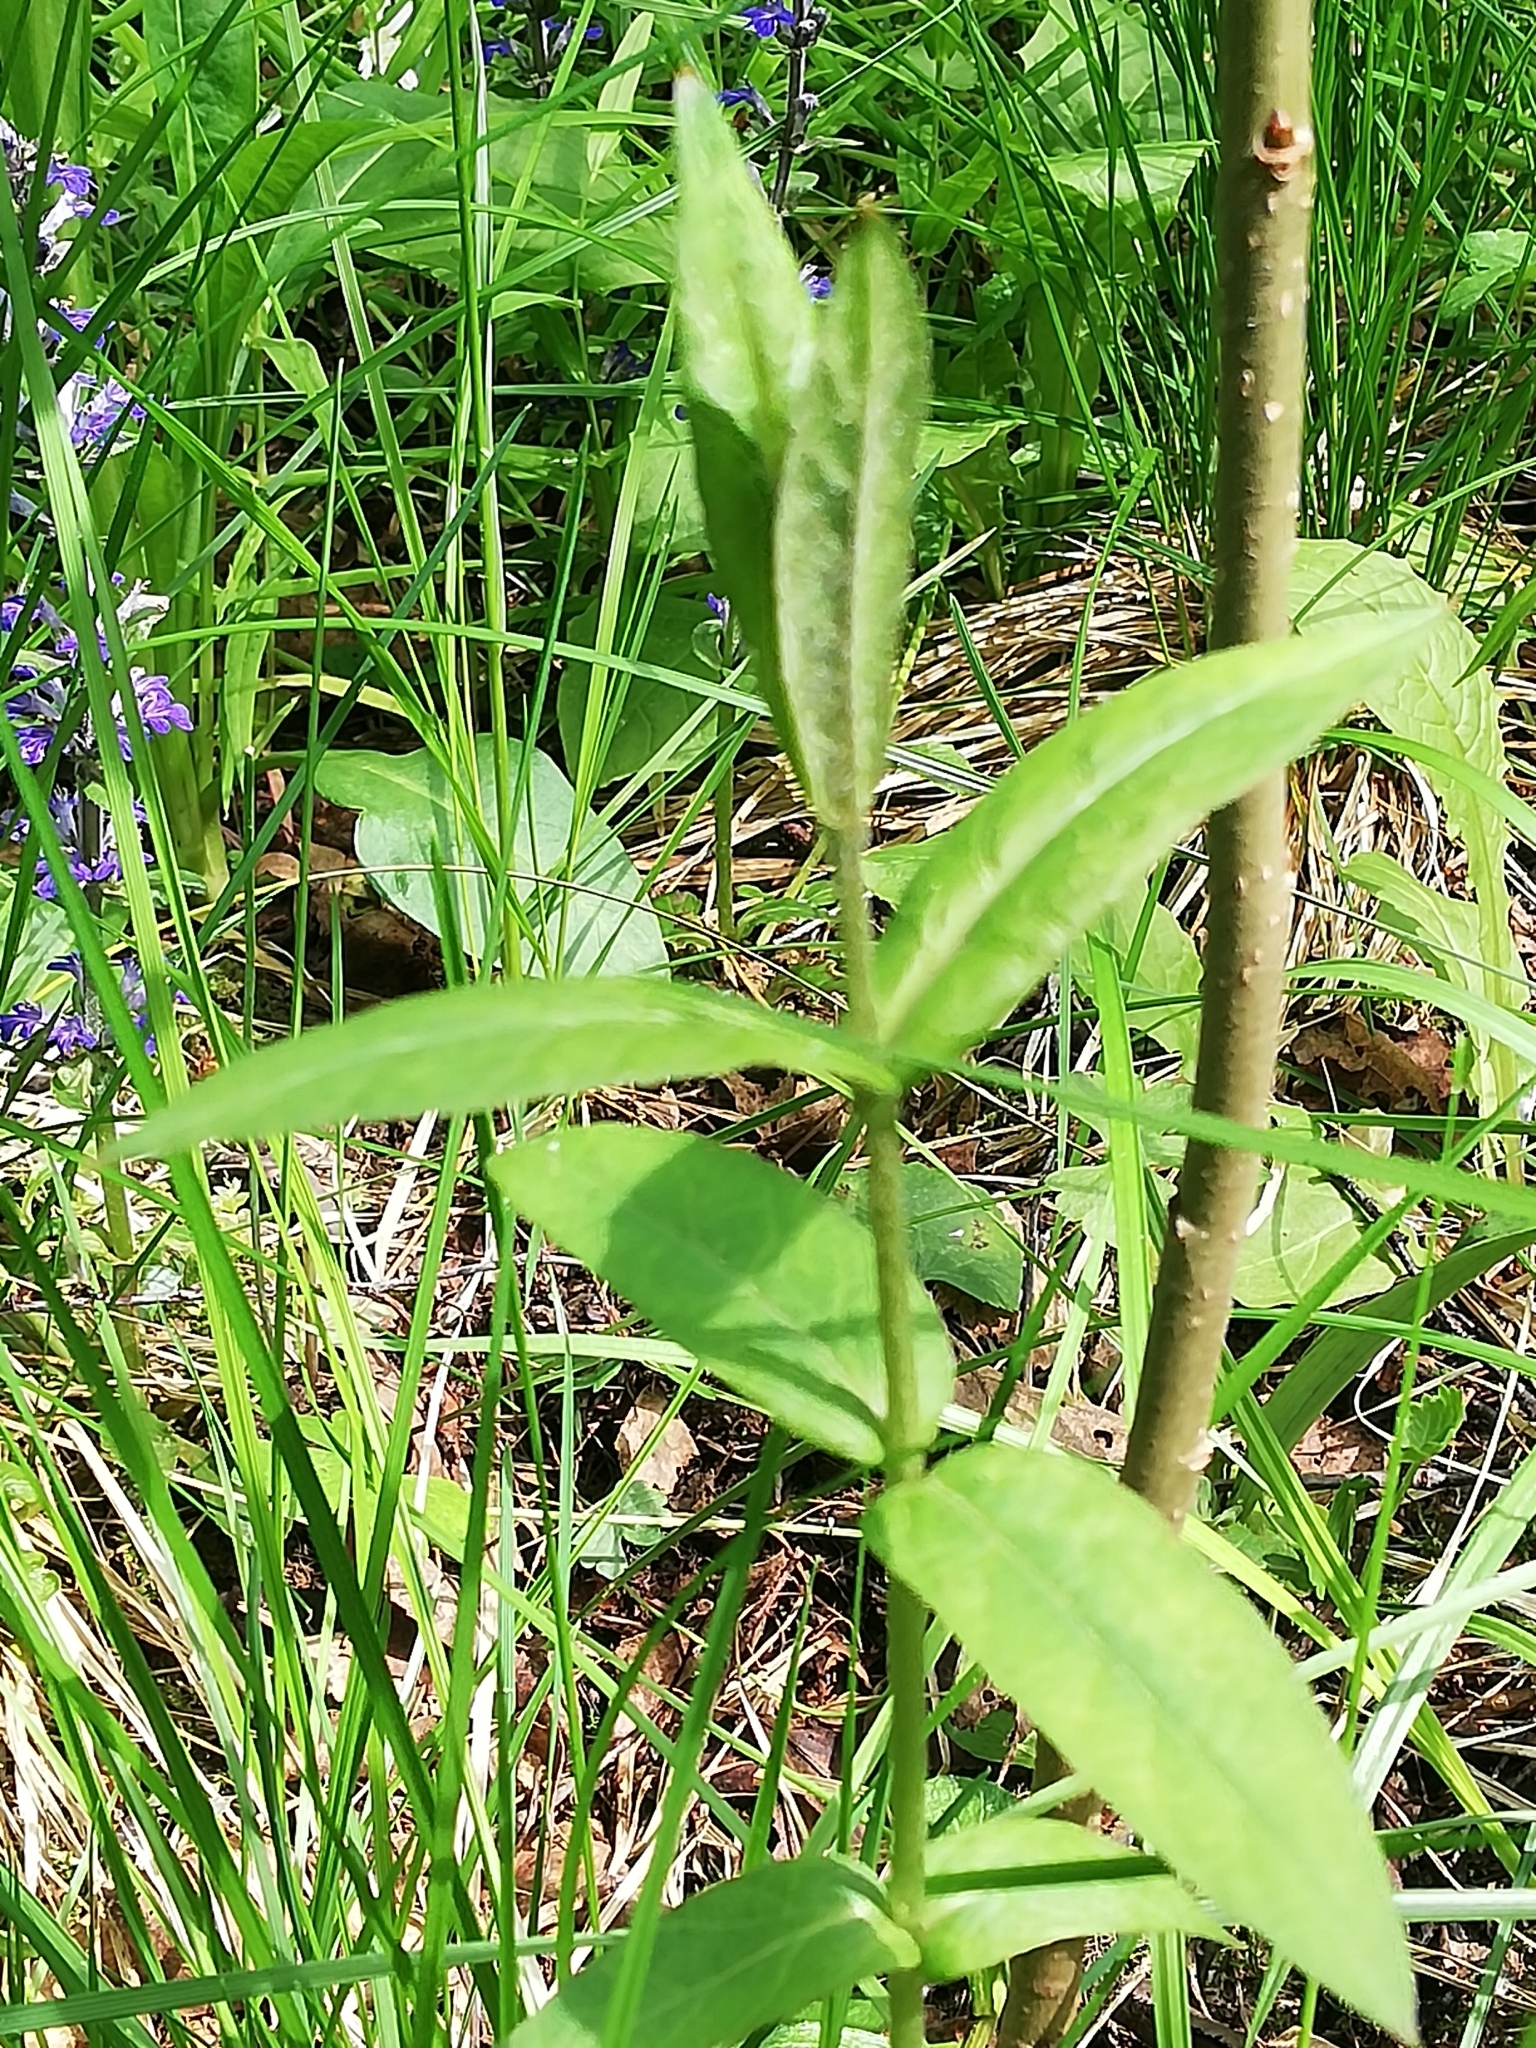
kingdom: Plantae
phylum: Tracheophyta
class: Magnoliopsida
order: Ericales
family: Primulaceae
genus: Lysimachia
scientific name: Lysimachia thyrsiflora
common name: Tufted loosestrife
